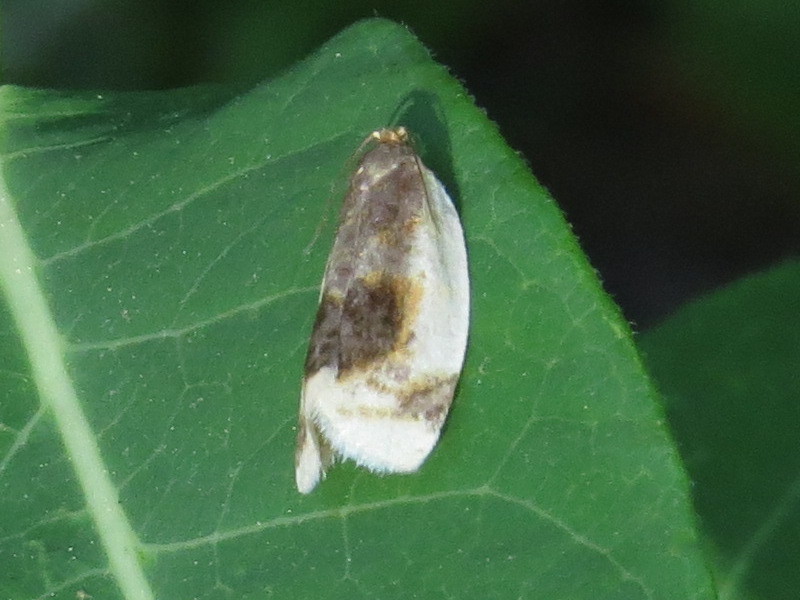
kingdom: Animalia
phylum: Arthropoda
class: Insecta
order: Lepidoptera
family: Tortricidae
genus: Clepsis
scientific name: Clepsis melaleucanus
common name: American apple tortrix
